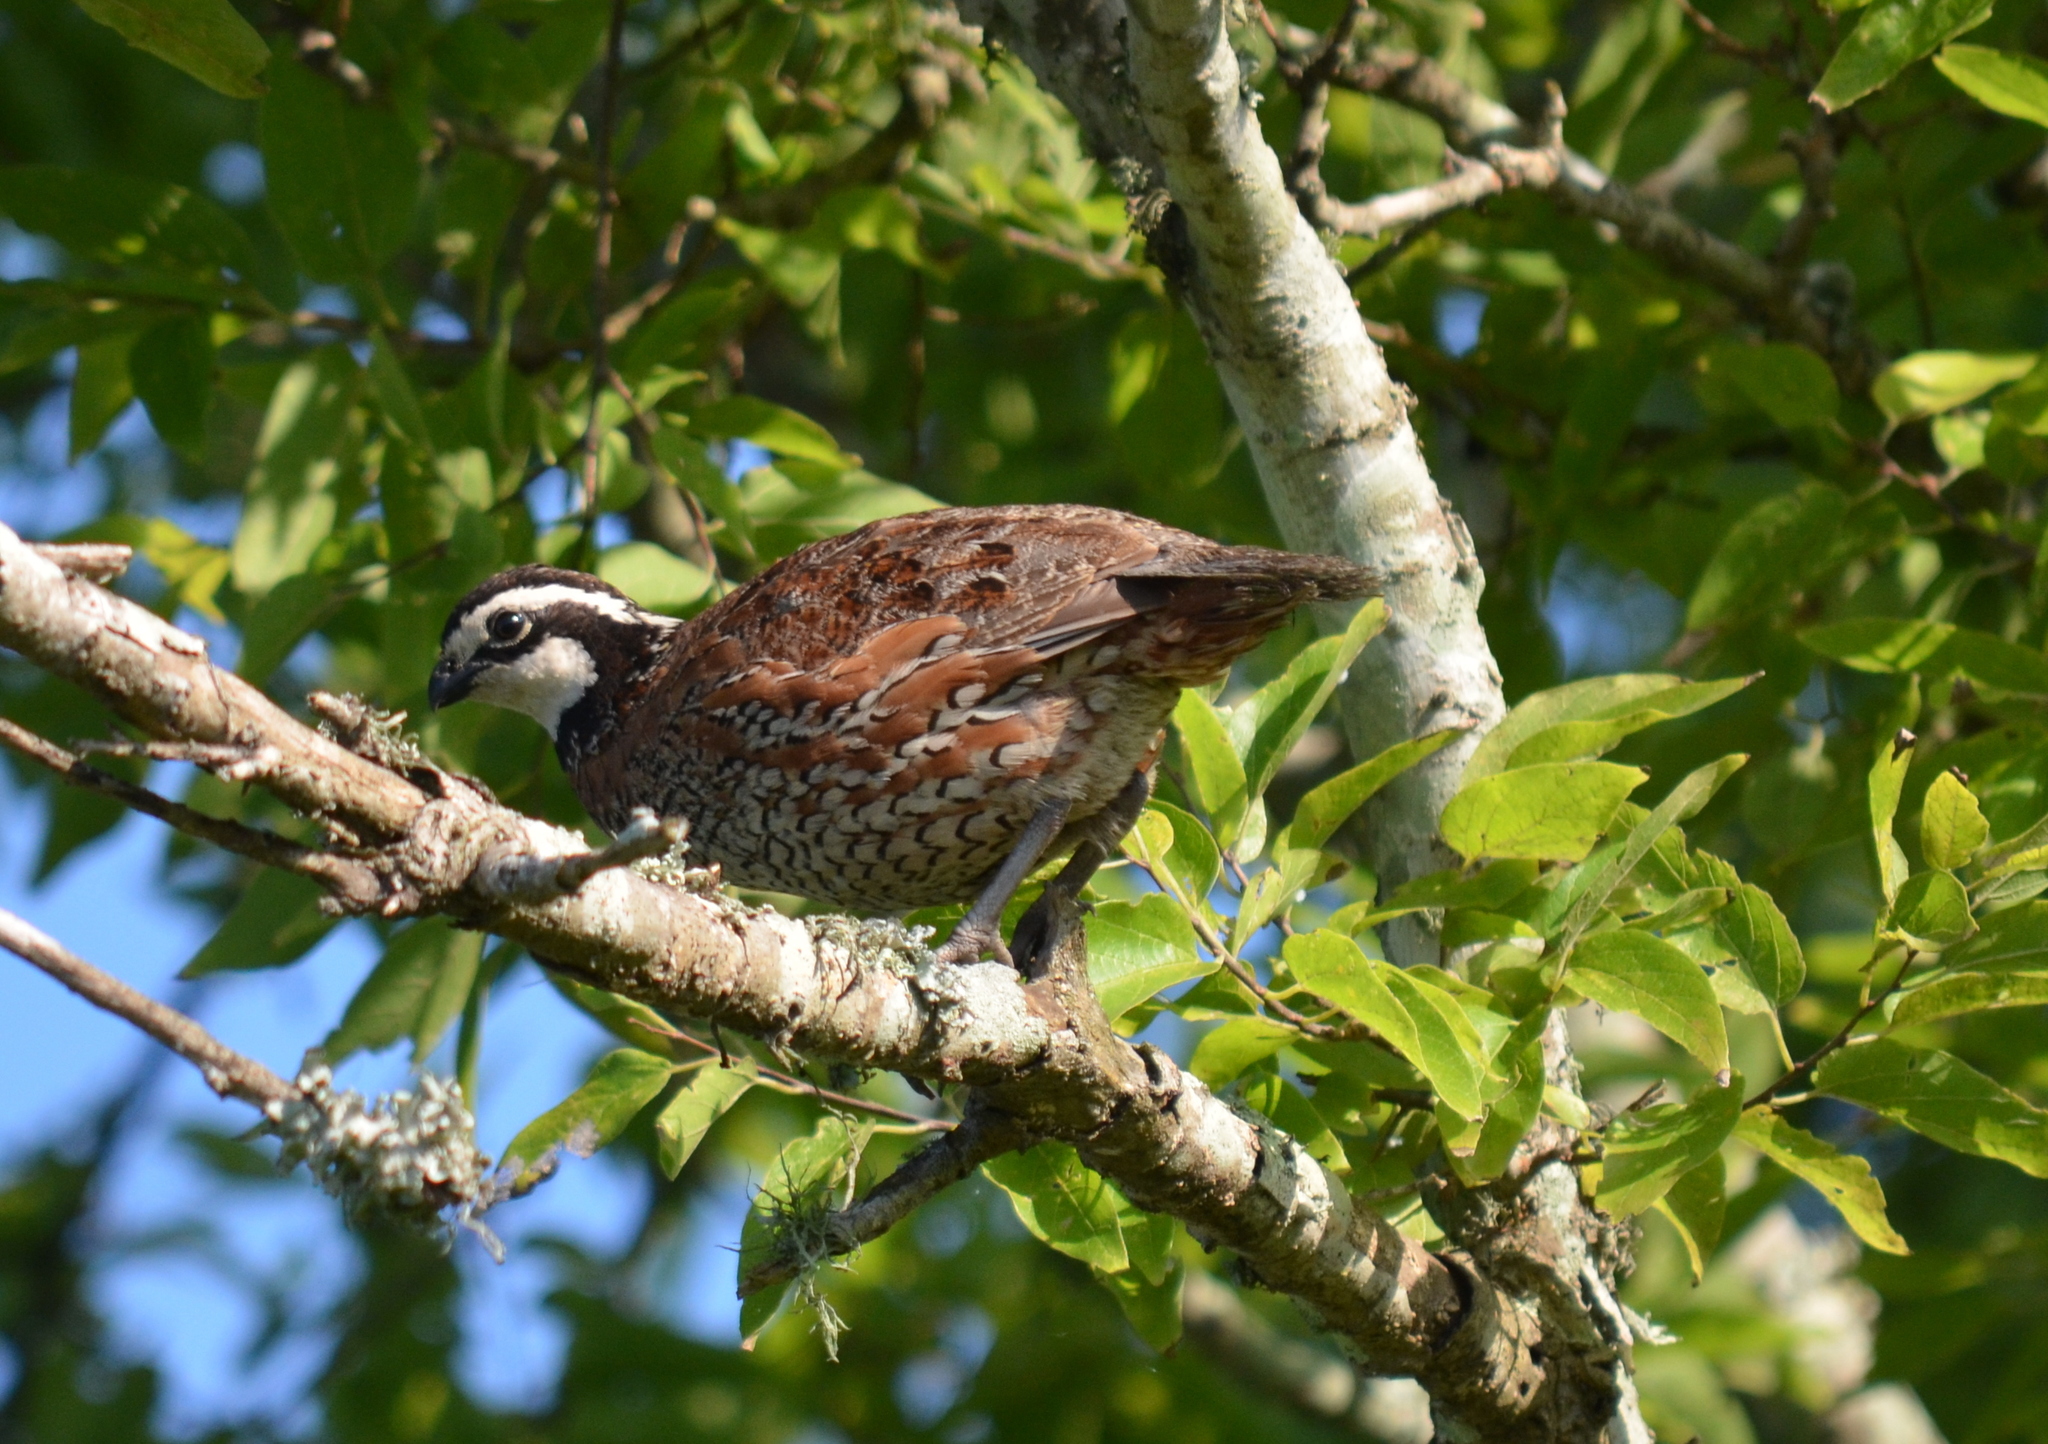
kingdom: Animalia
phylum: Chordata
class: Aves
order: Galliformes
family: Odontophoridae
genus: Colinus
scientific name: Colinus virginianus
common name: Northern bobwhite
